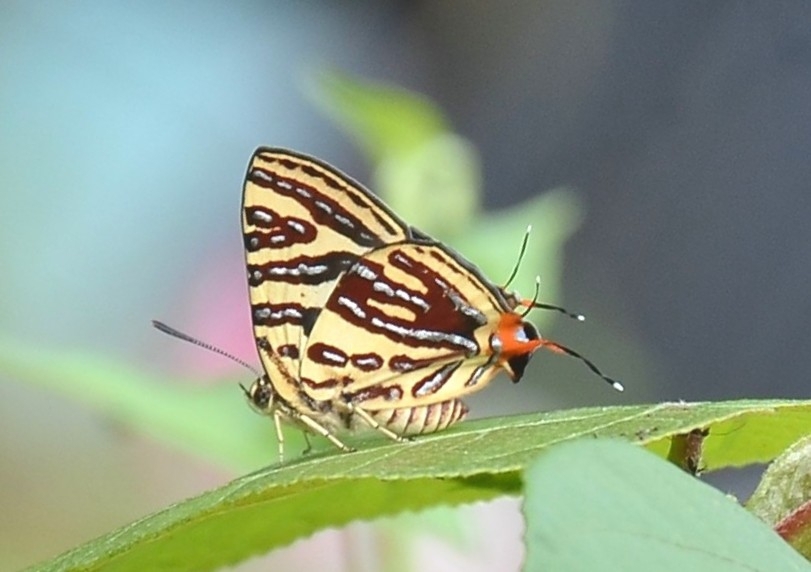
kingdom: Animalia
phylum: Arthropoda
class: Insecta
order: Lepidoptera
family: Lycaenidae
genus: Cigaritis
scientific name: Cigaritis lohita
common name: Long-banded silverline
